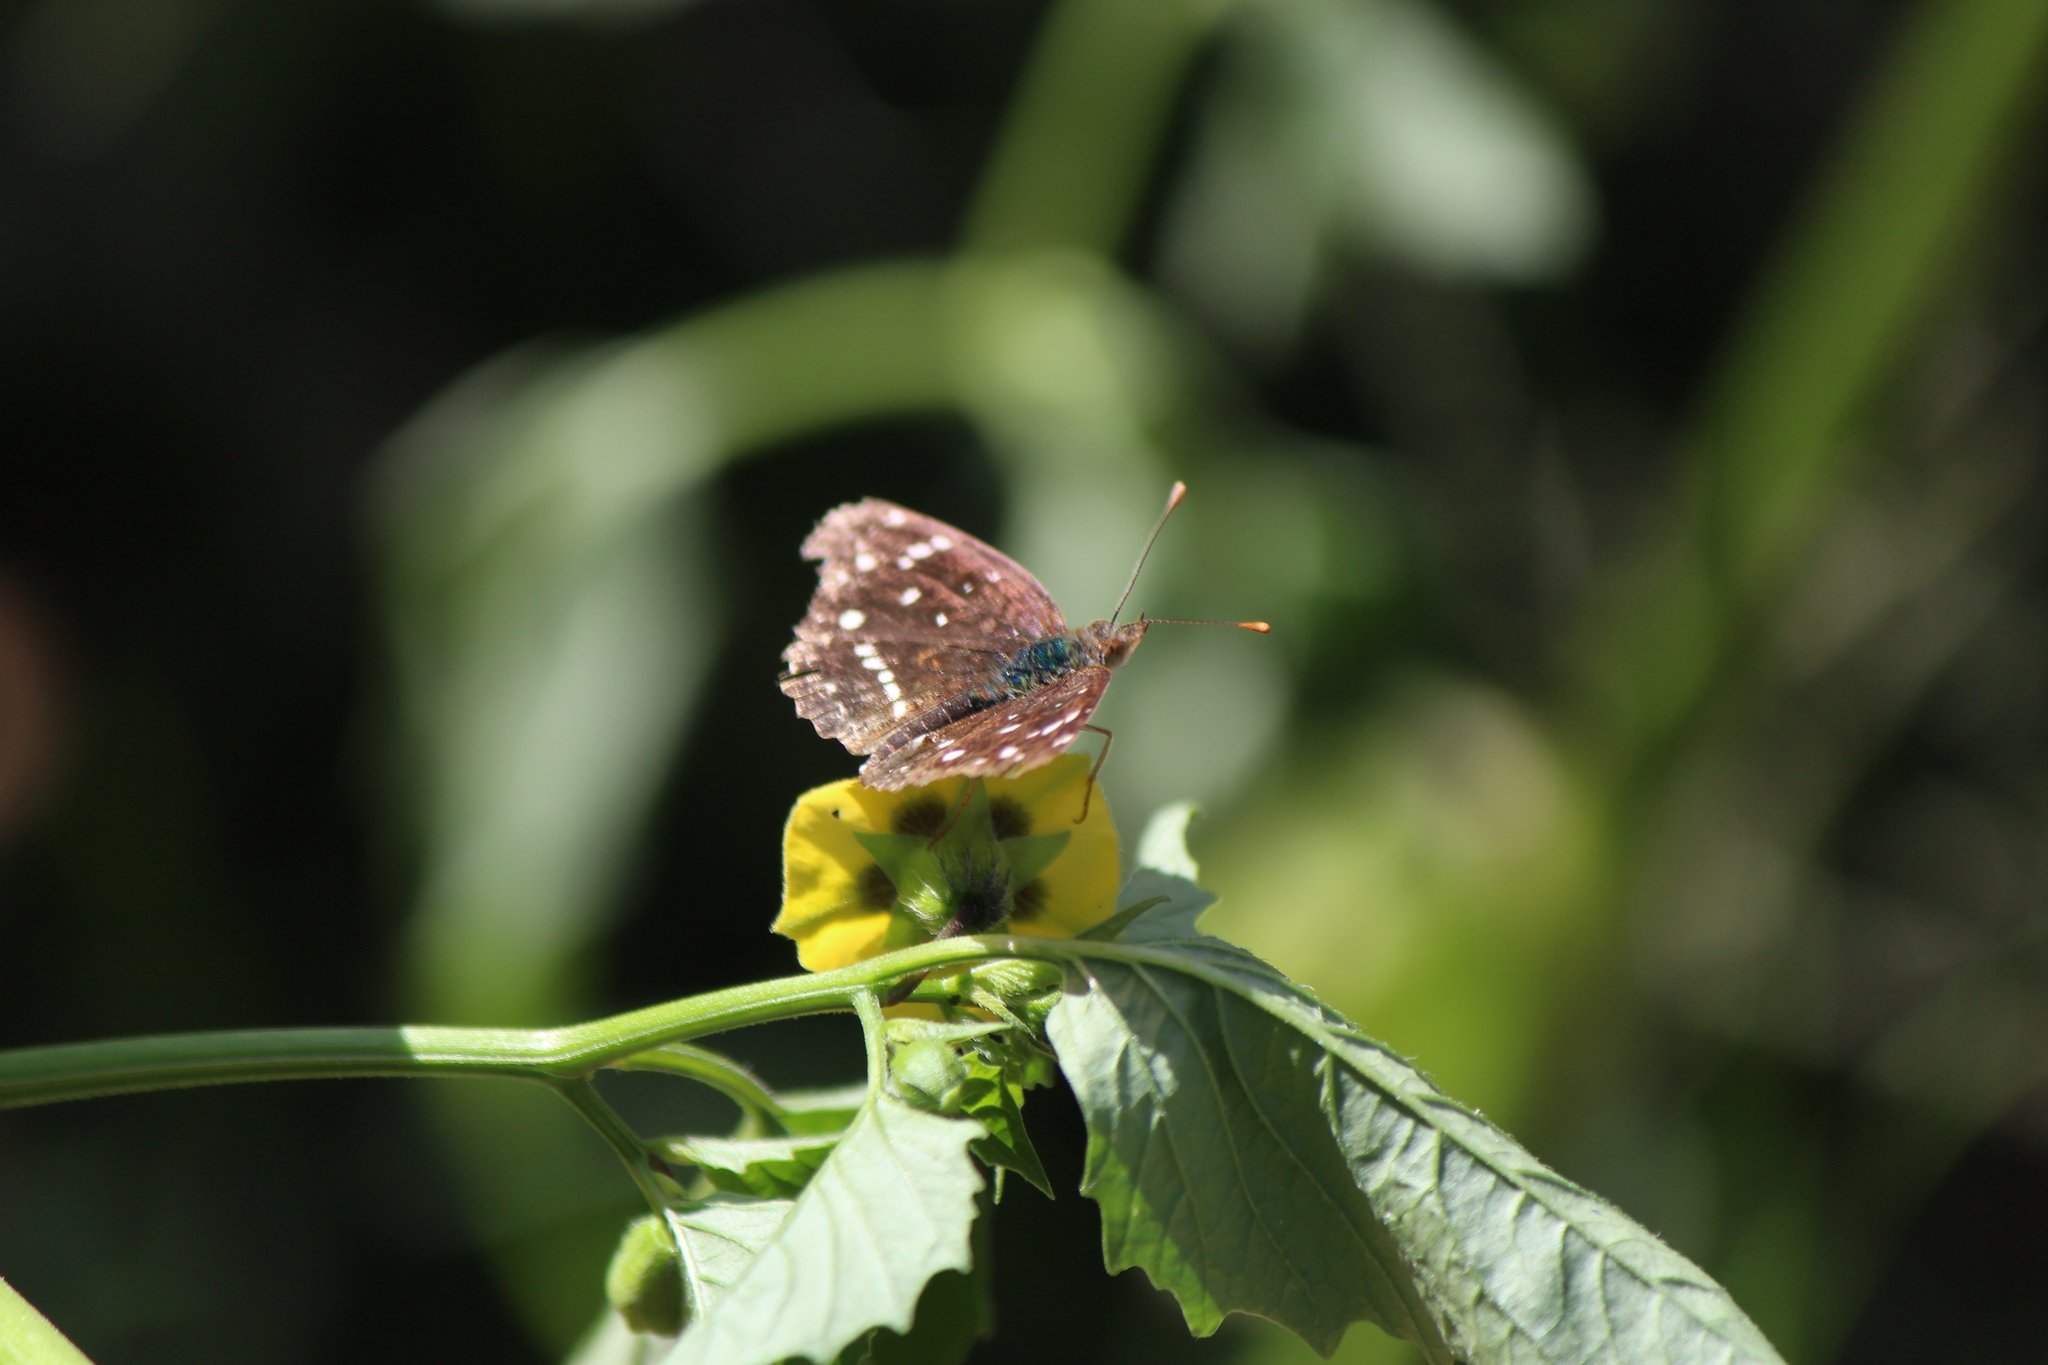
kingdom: Animalia
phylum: Arthropoda
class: Insecta
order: Lepidoptera
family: Nymphalidae
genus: Anthanassa
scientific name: Anthanassa texana
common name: Texan crescent
